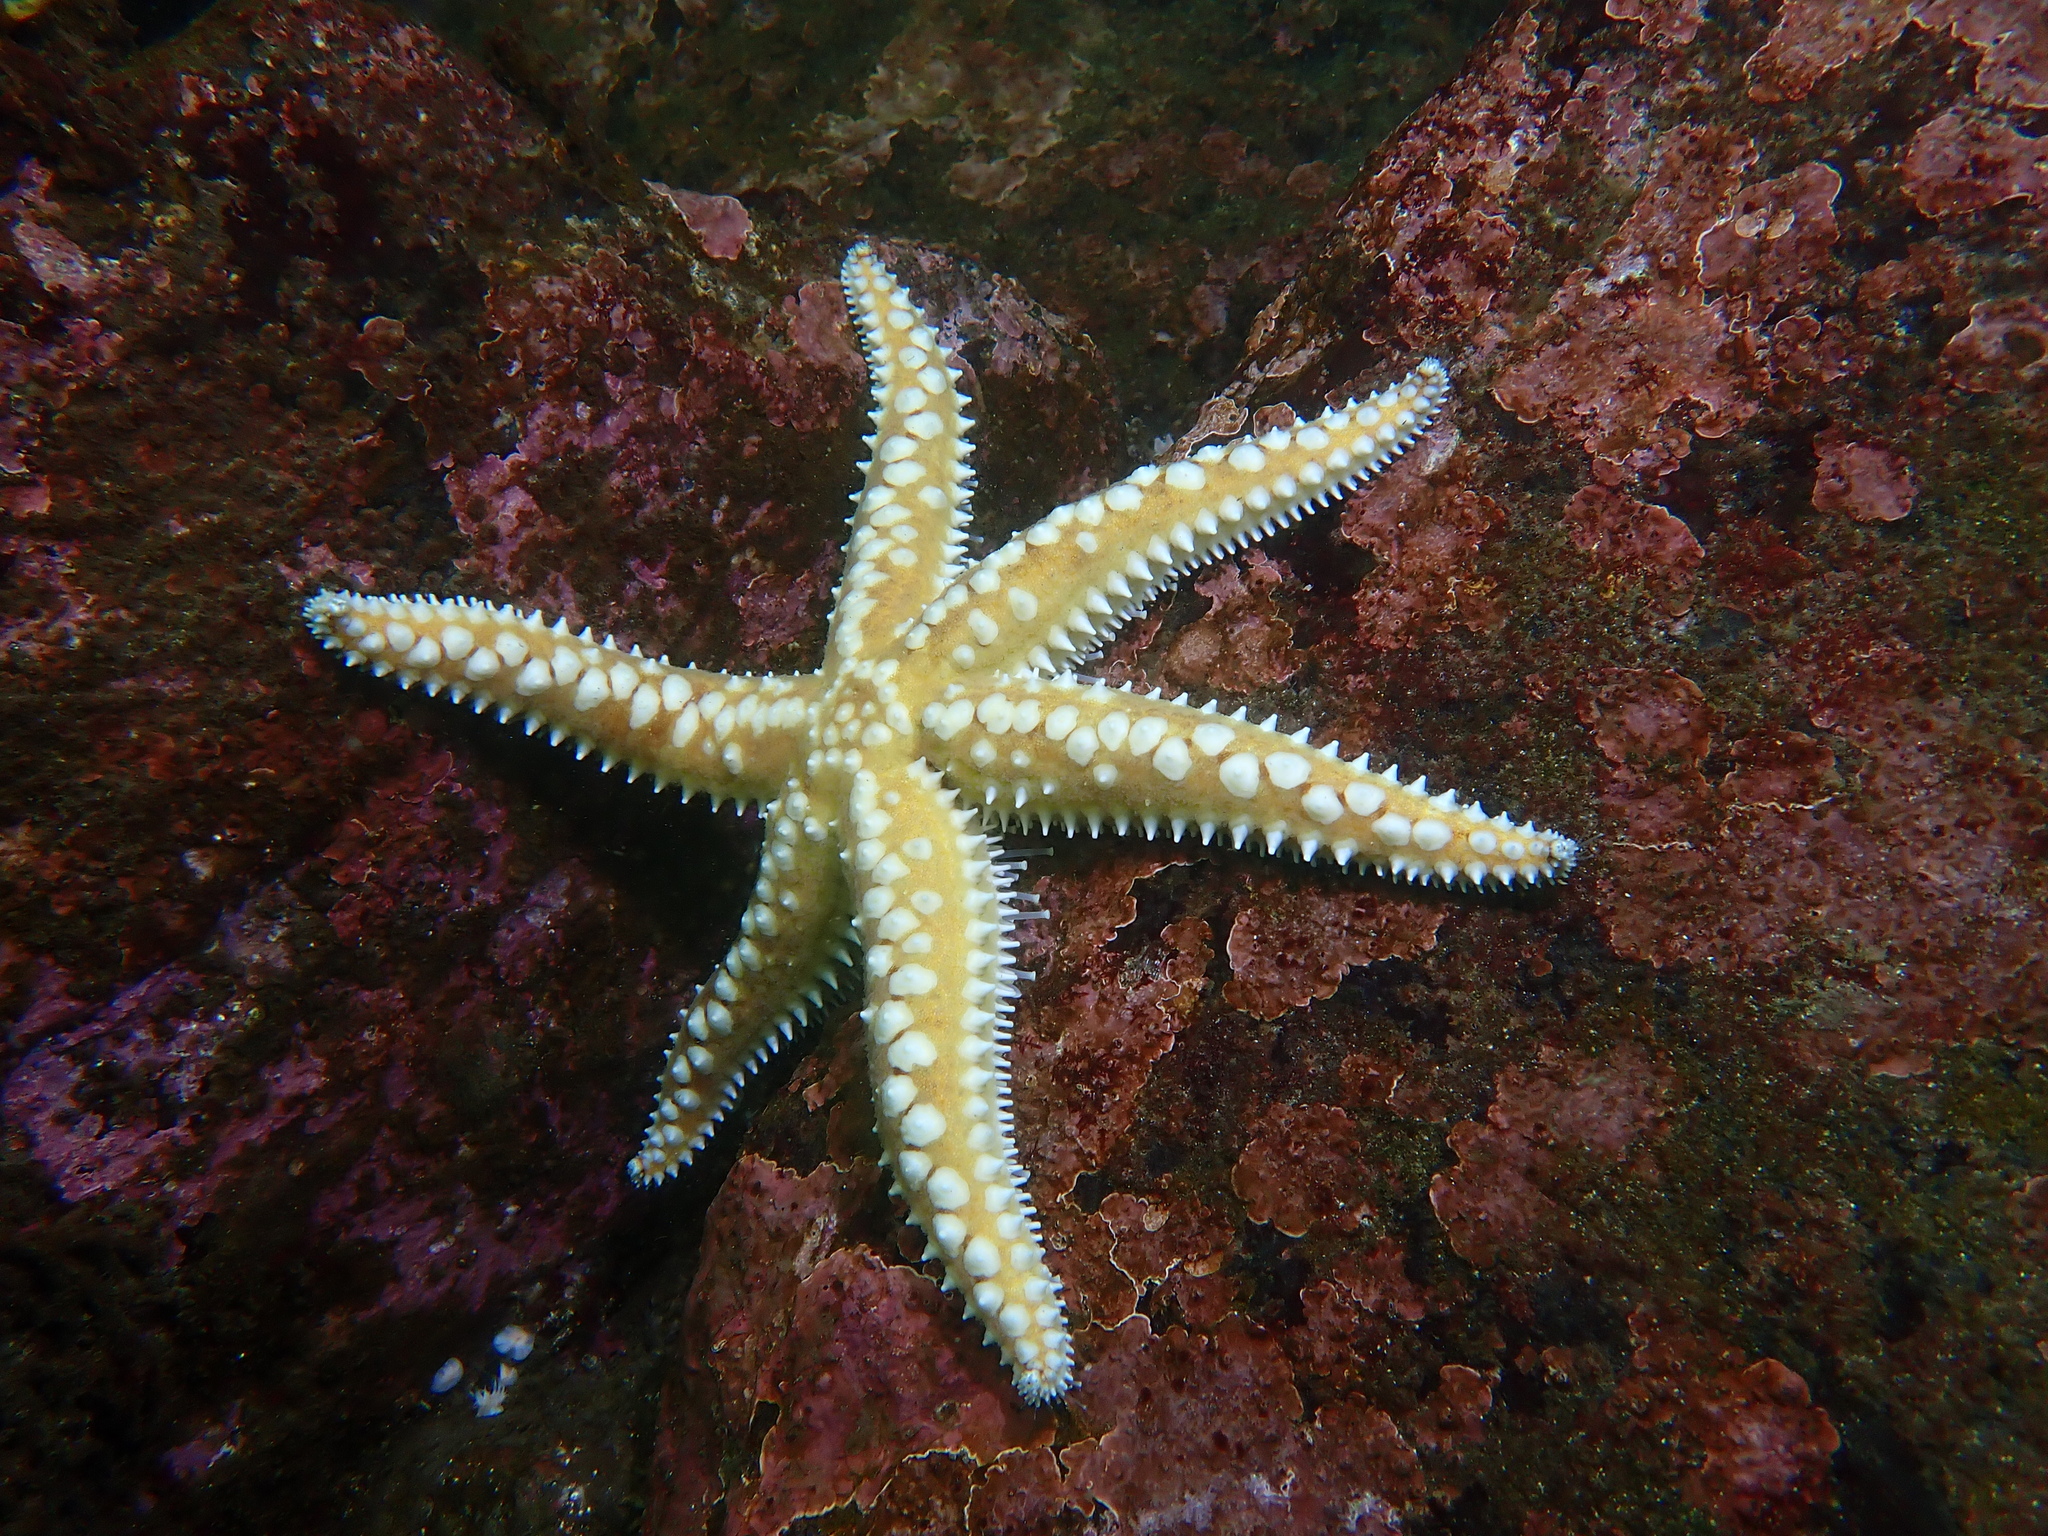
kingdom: Animalia
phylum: Echinodermata
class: Asteroidea
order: Forcipulatida
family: Asteriidae
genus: Meyenaster
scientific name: Meyenaster gelatinosus
